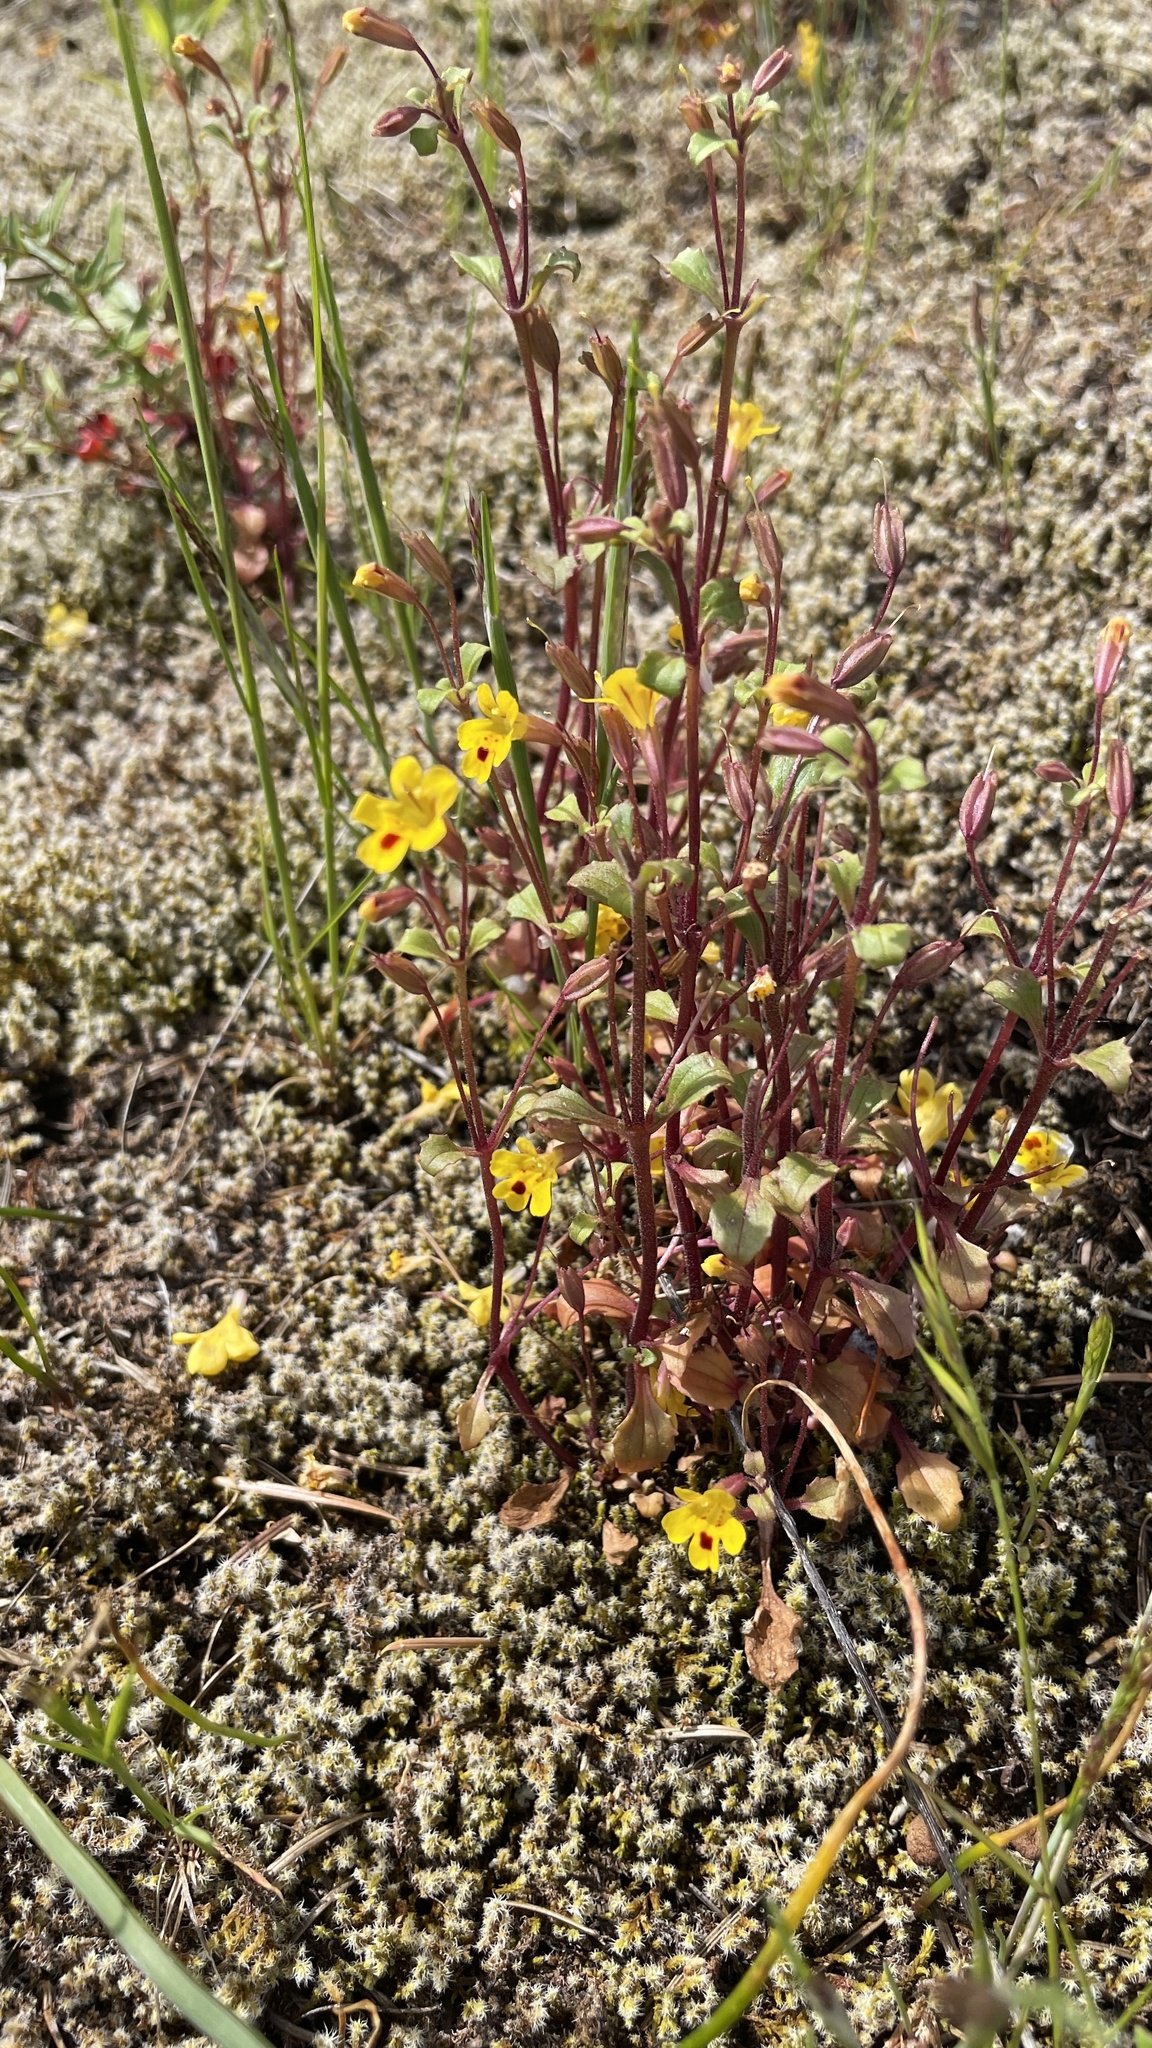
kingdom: Plantae
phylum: Tracheophyta
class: Magnoliopsida
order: Lamiales
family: Phrymaceae
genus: Erythranthe
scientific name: Erythranthe alsinoides
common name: Chickweed monkeyflower
